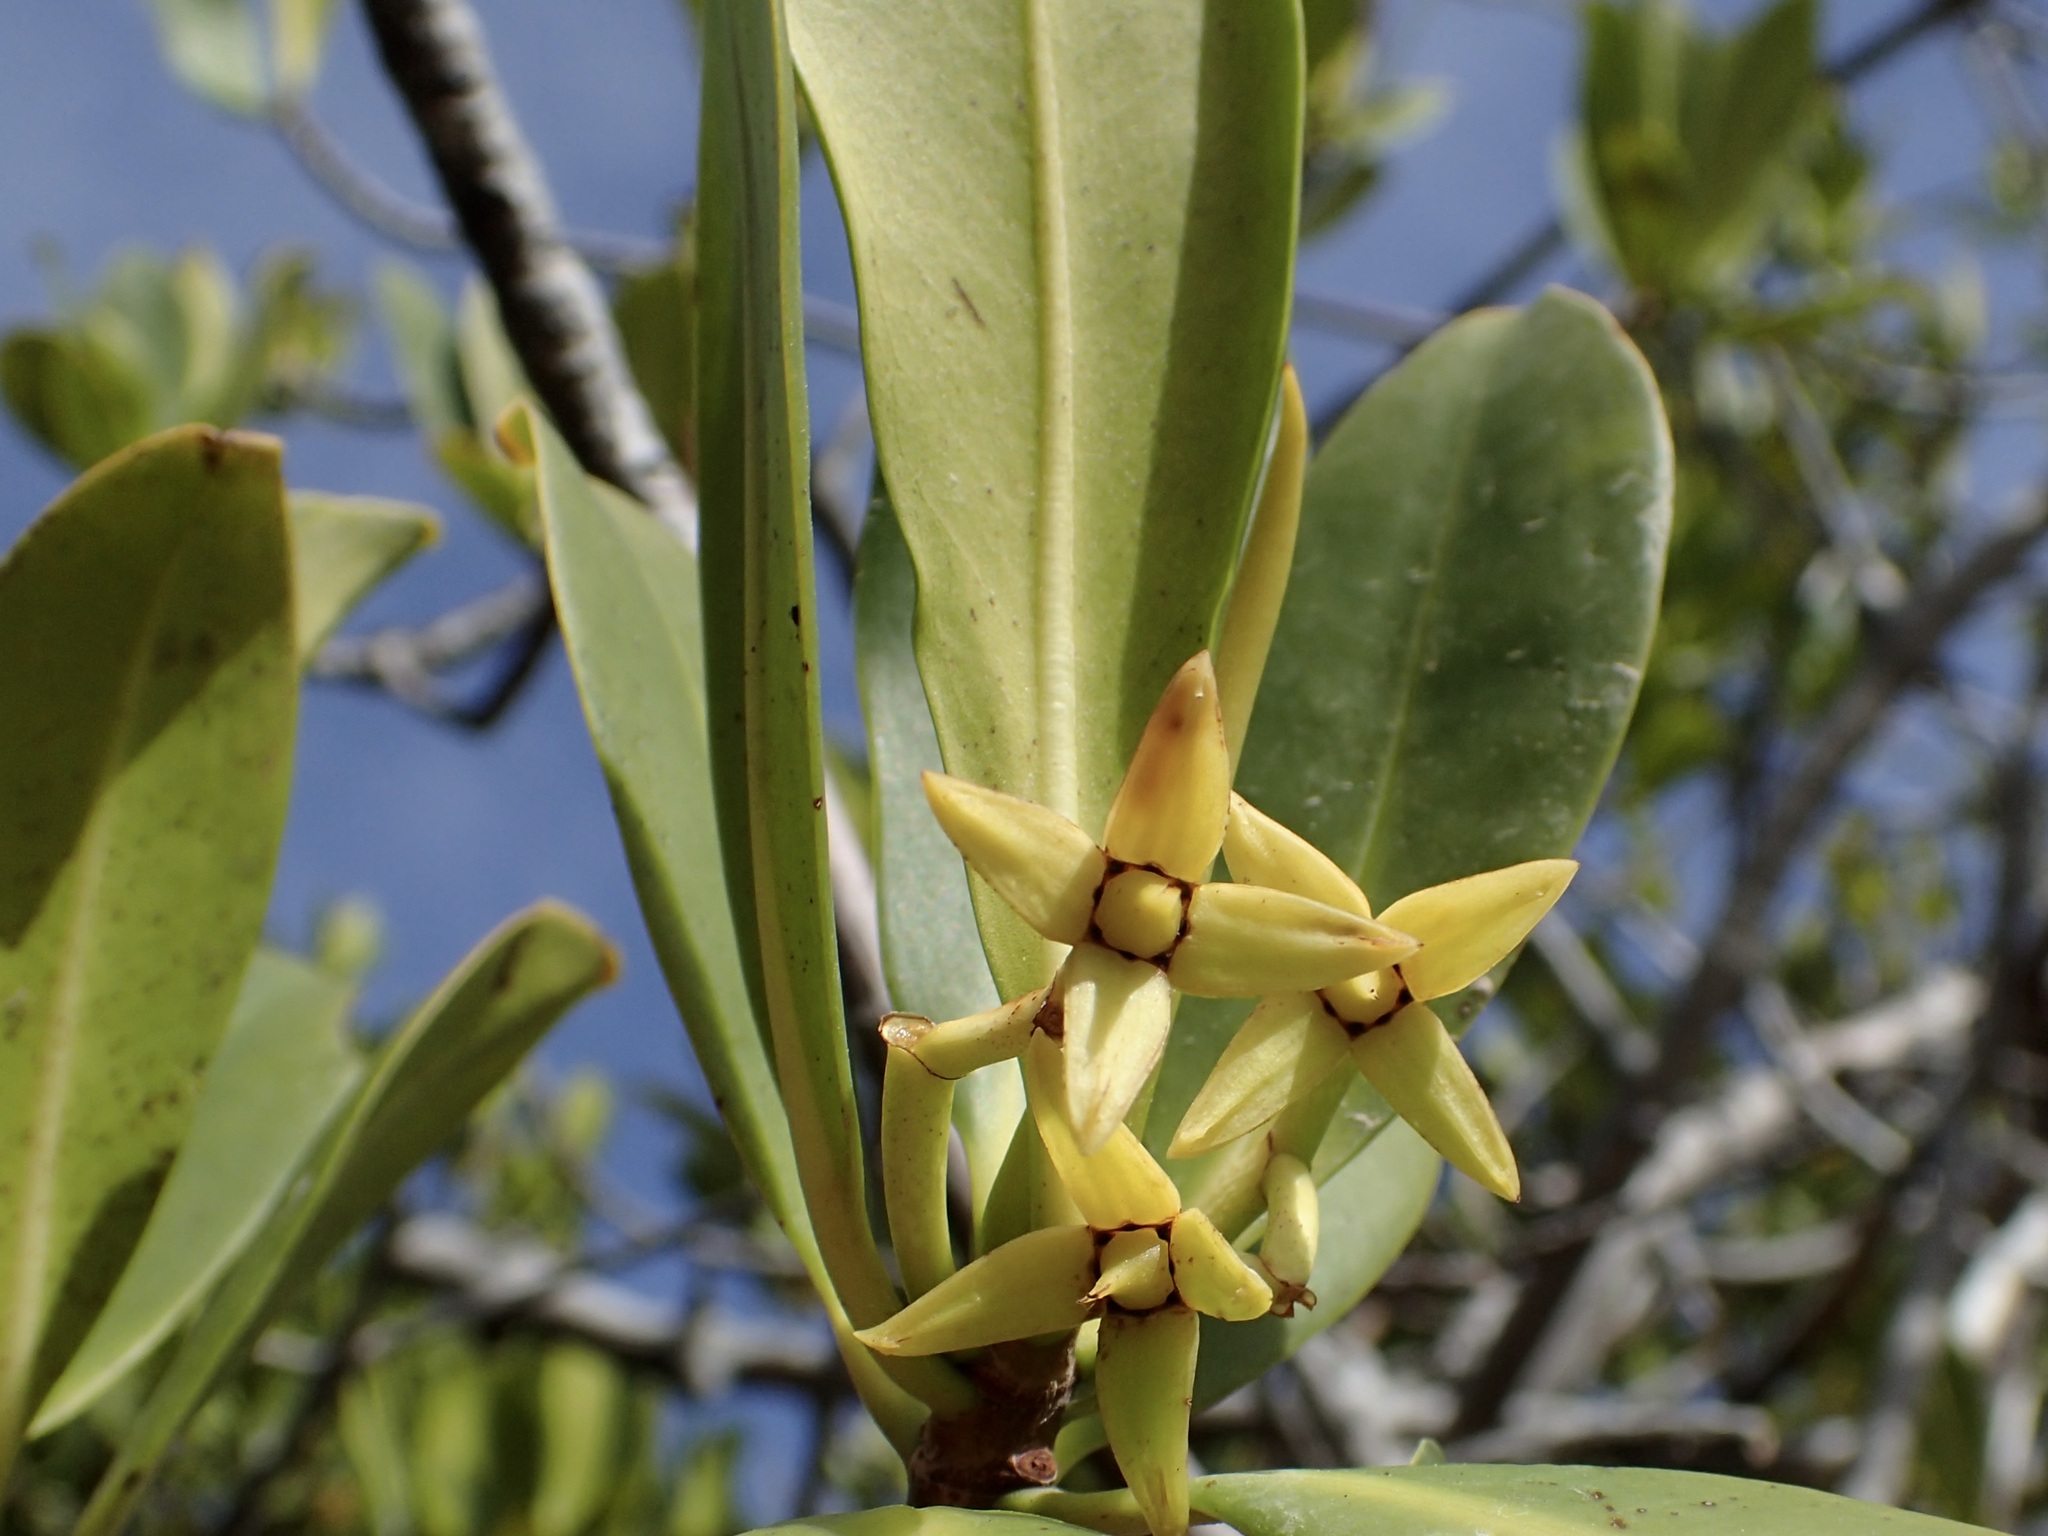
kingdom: Plantae
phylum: Tracheophyta
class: Magnoliopsida
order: Malpighiales
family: Rhizophoraceae
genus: Rhizophora
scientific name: Rhizophora mangle
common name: Red mangrove
